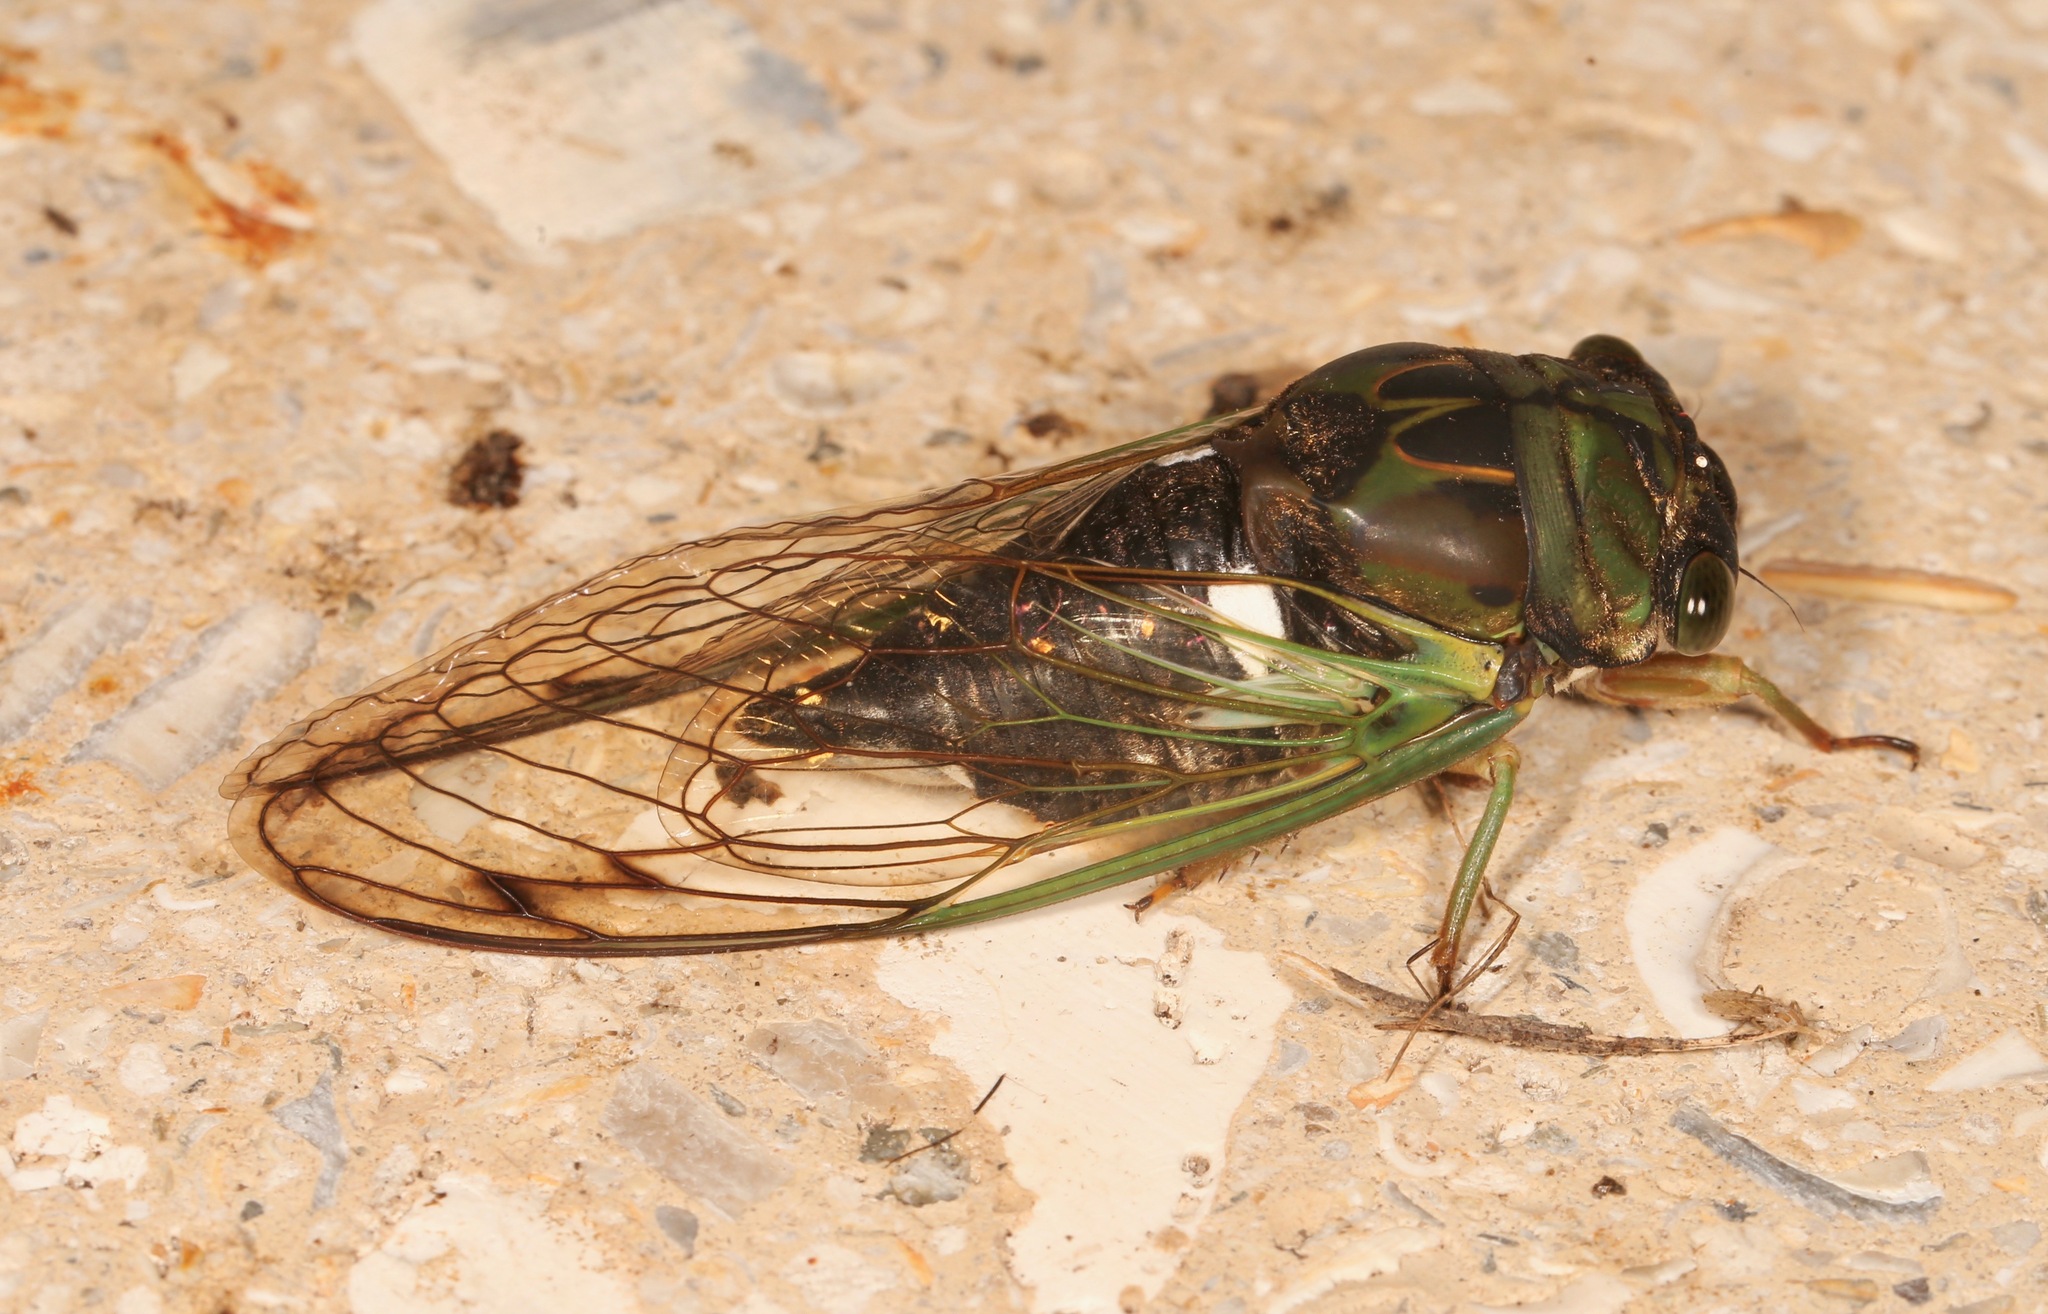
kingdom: Animalia
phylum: Arthropoda
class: Insecta
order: Hemiptera
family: Cicadidae
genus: Neotibicen
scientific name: Neotibicen tibicen
